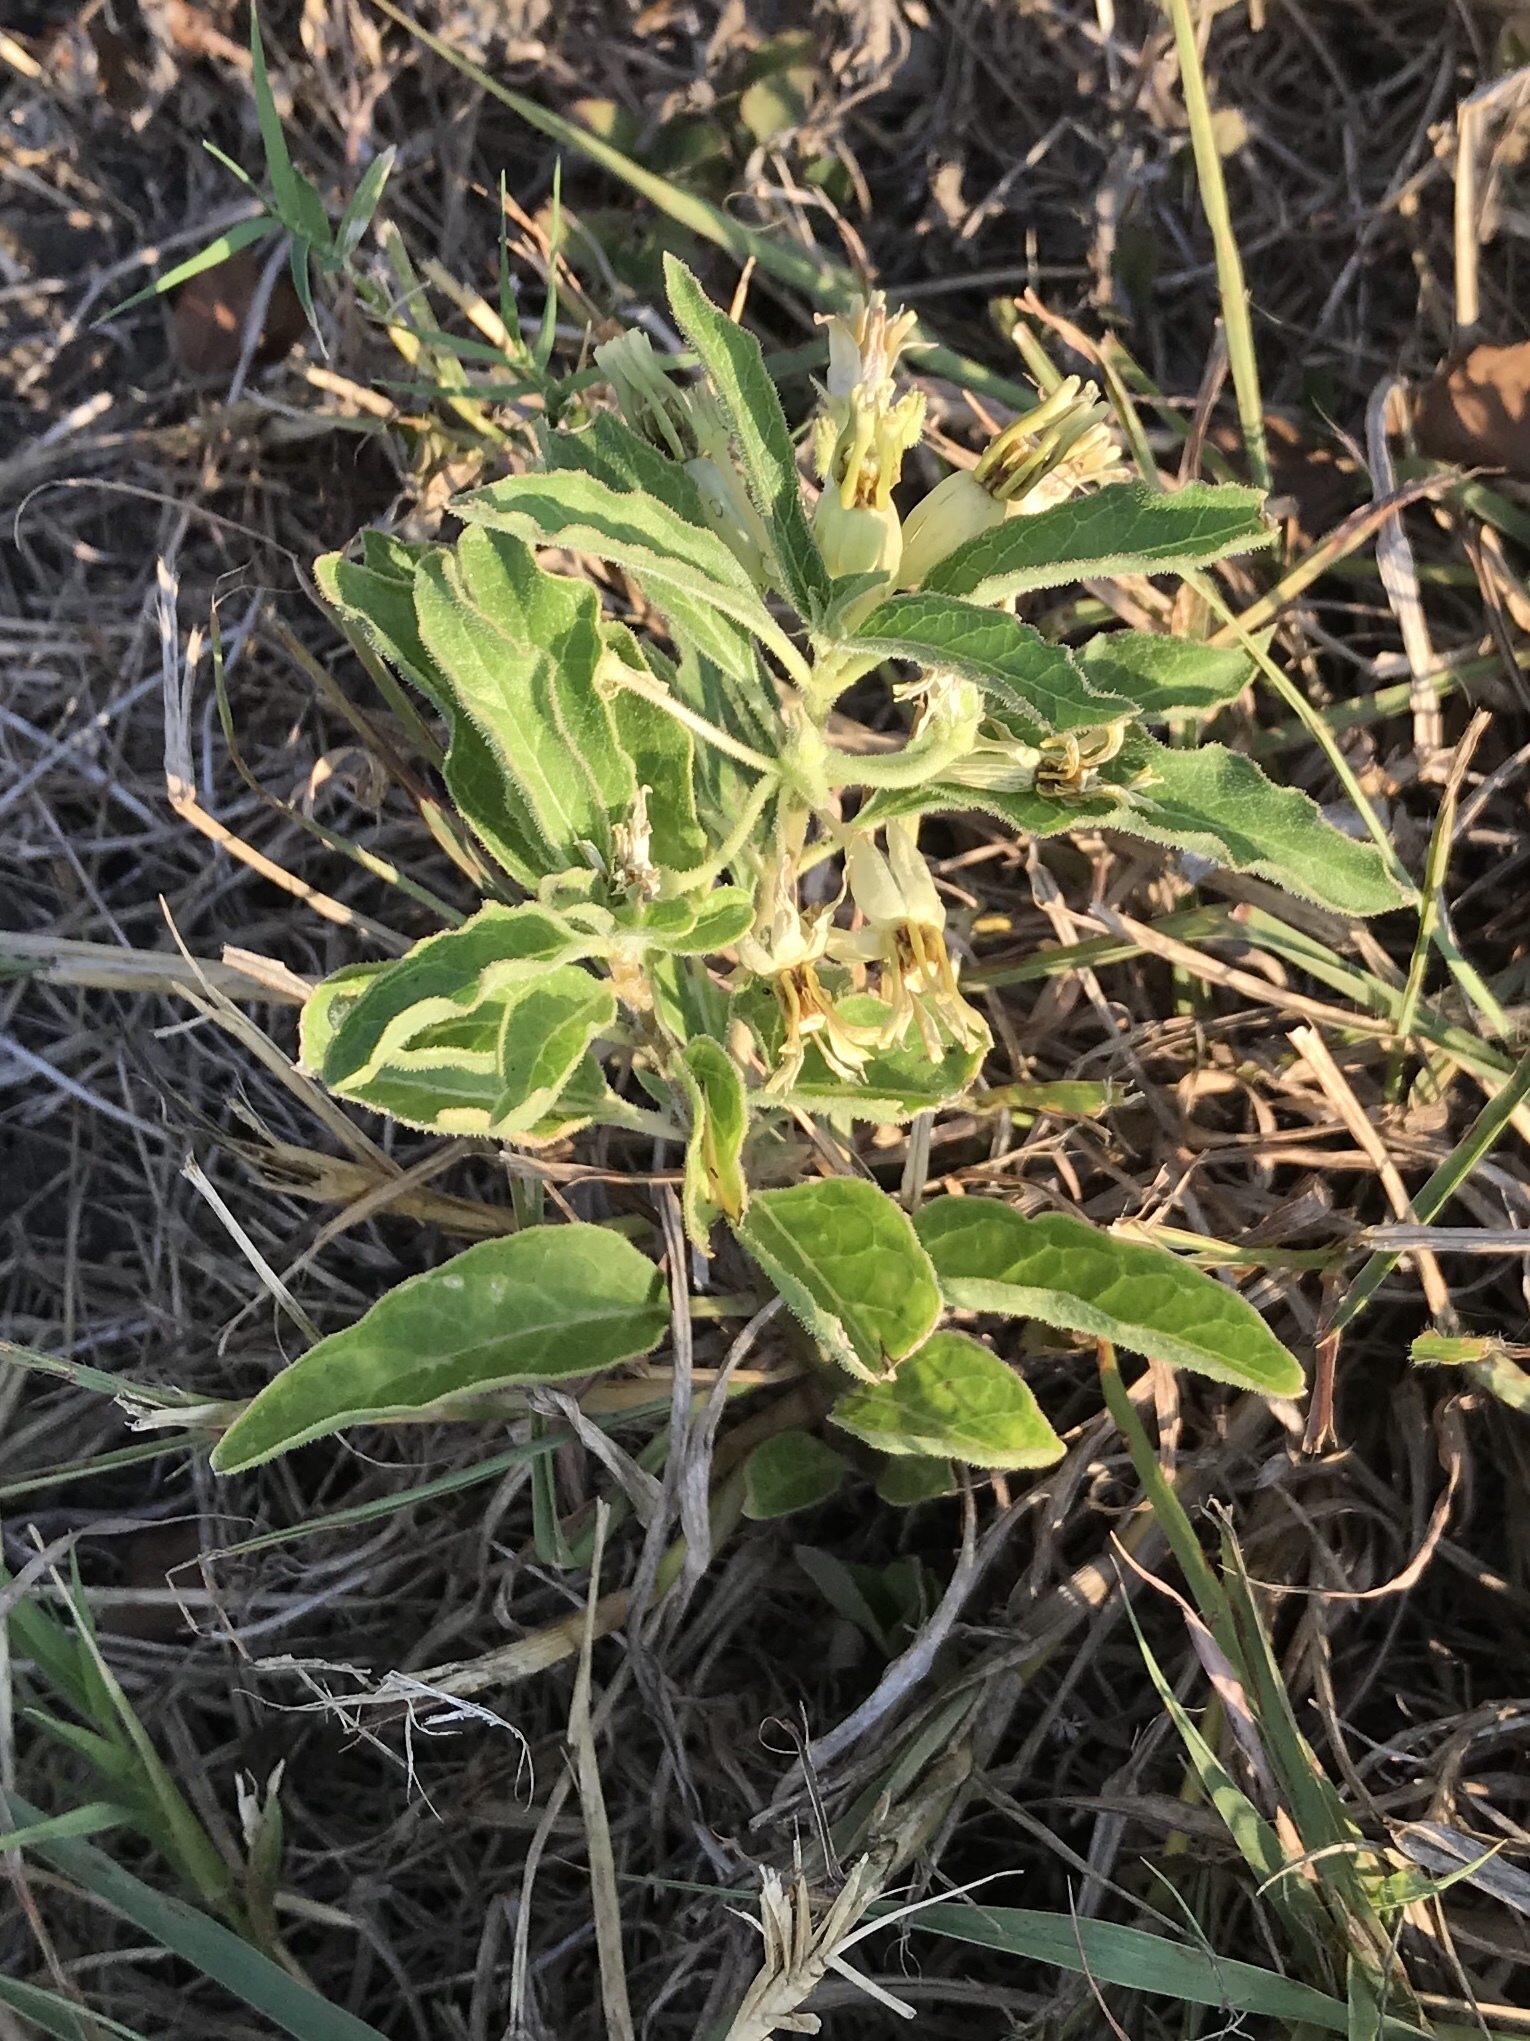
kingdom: Plantae
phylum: Tracheophyta
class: Magnoliopsida
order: Gentianales
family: Apocynaceae
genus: Asclepias
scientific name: Asclepias oenotheroides
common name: Zizotes milkweed
